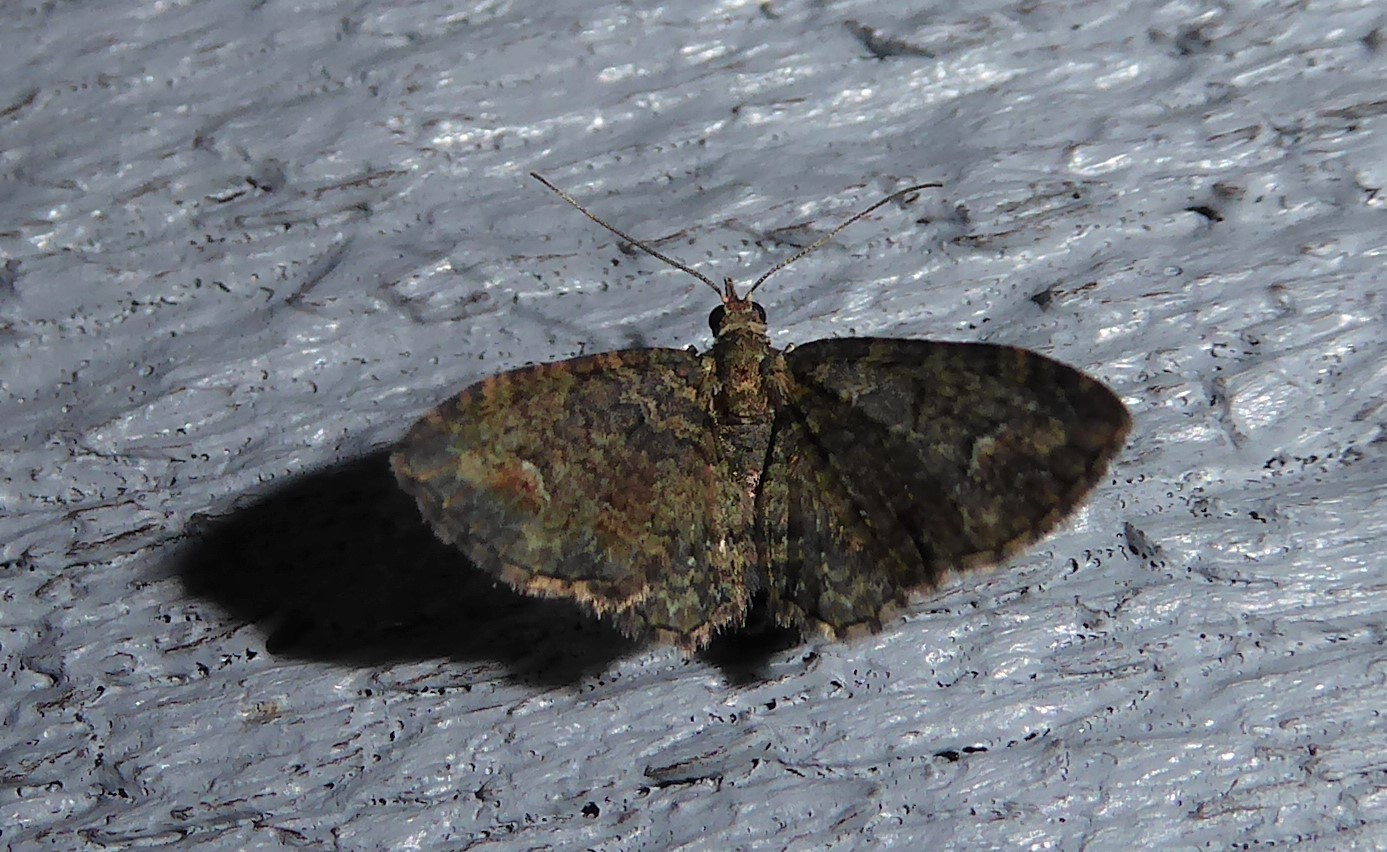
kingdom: Animalia
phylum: Arthropoda
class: Insecta
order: Lepidoptera
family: Geometridae
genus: Pasiphilodes
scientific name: Pasiphilodes testulata
